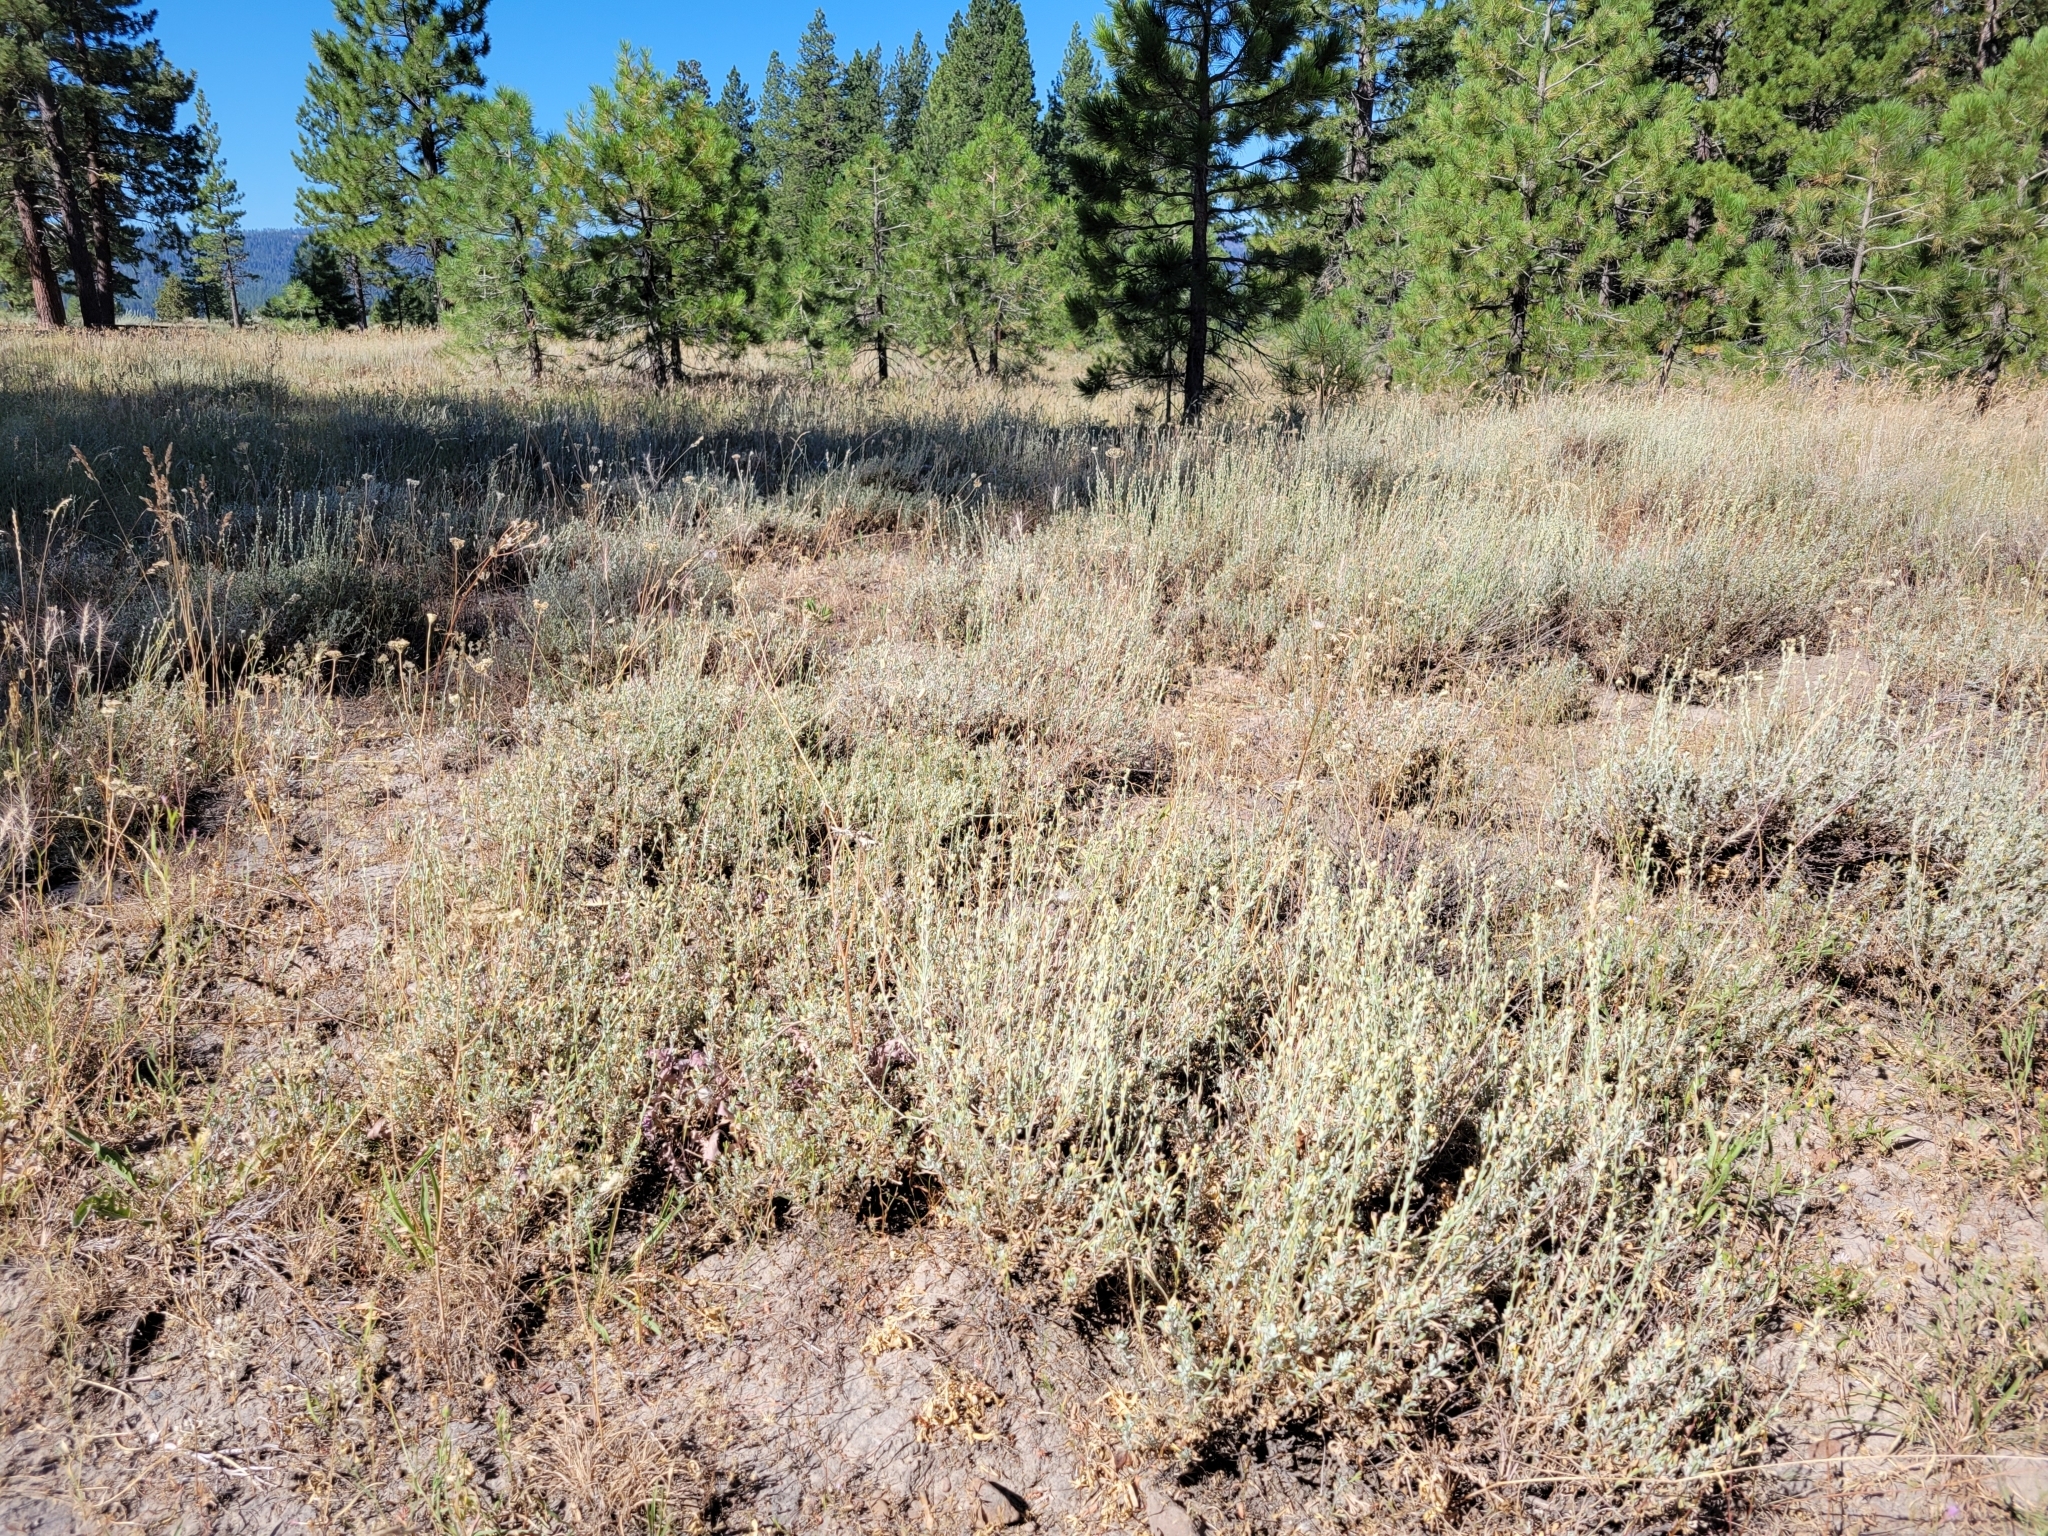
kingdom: Plantae
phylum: Tracheophyta
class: Magnoliopsida
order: Asterales
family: Asteraceae
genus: Artemisia
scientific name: Artemisia arbuscula
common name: Sagebrush
